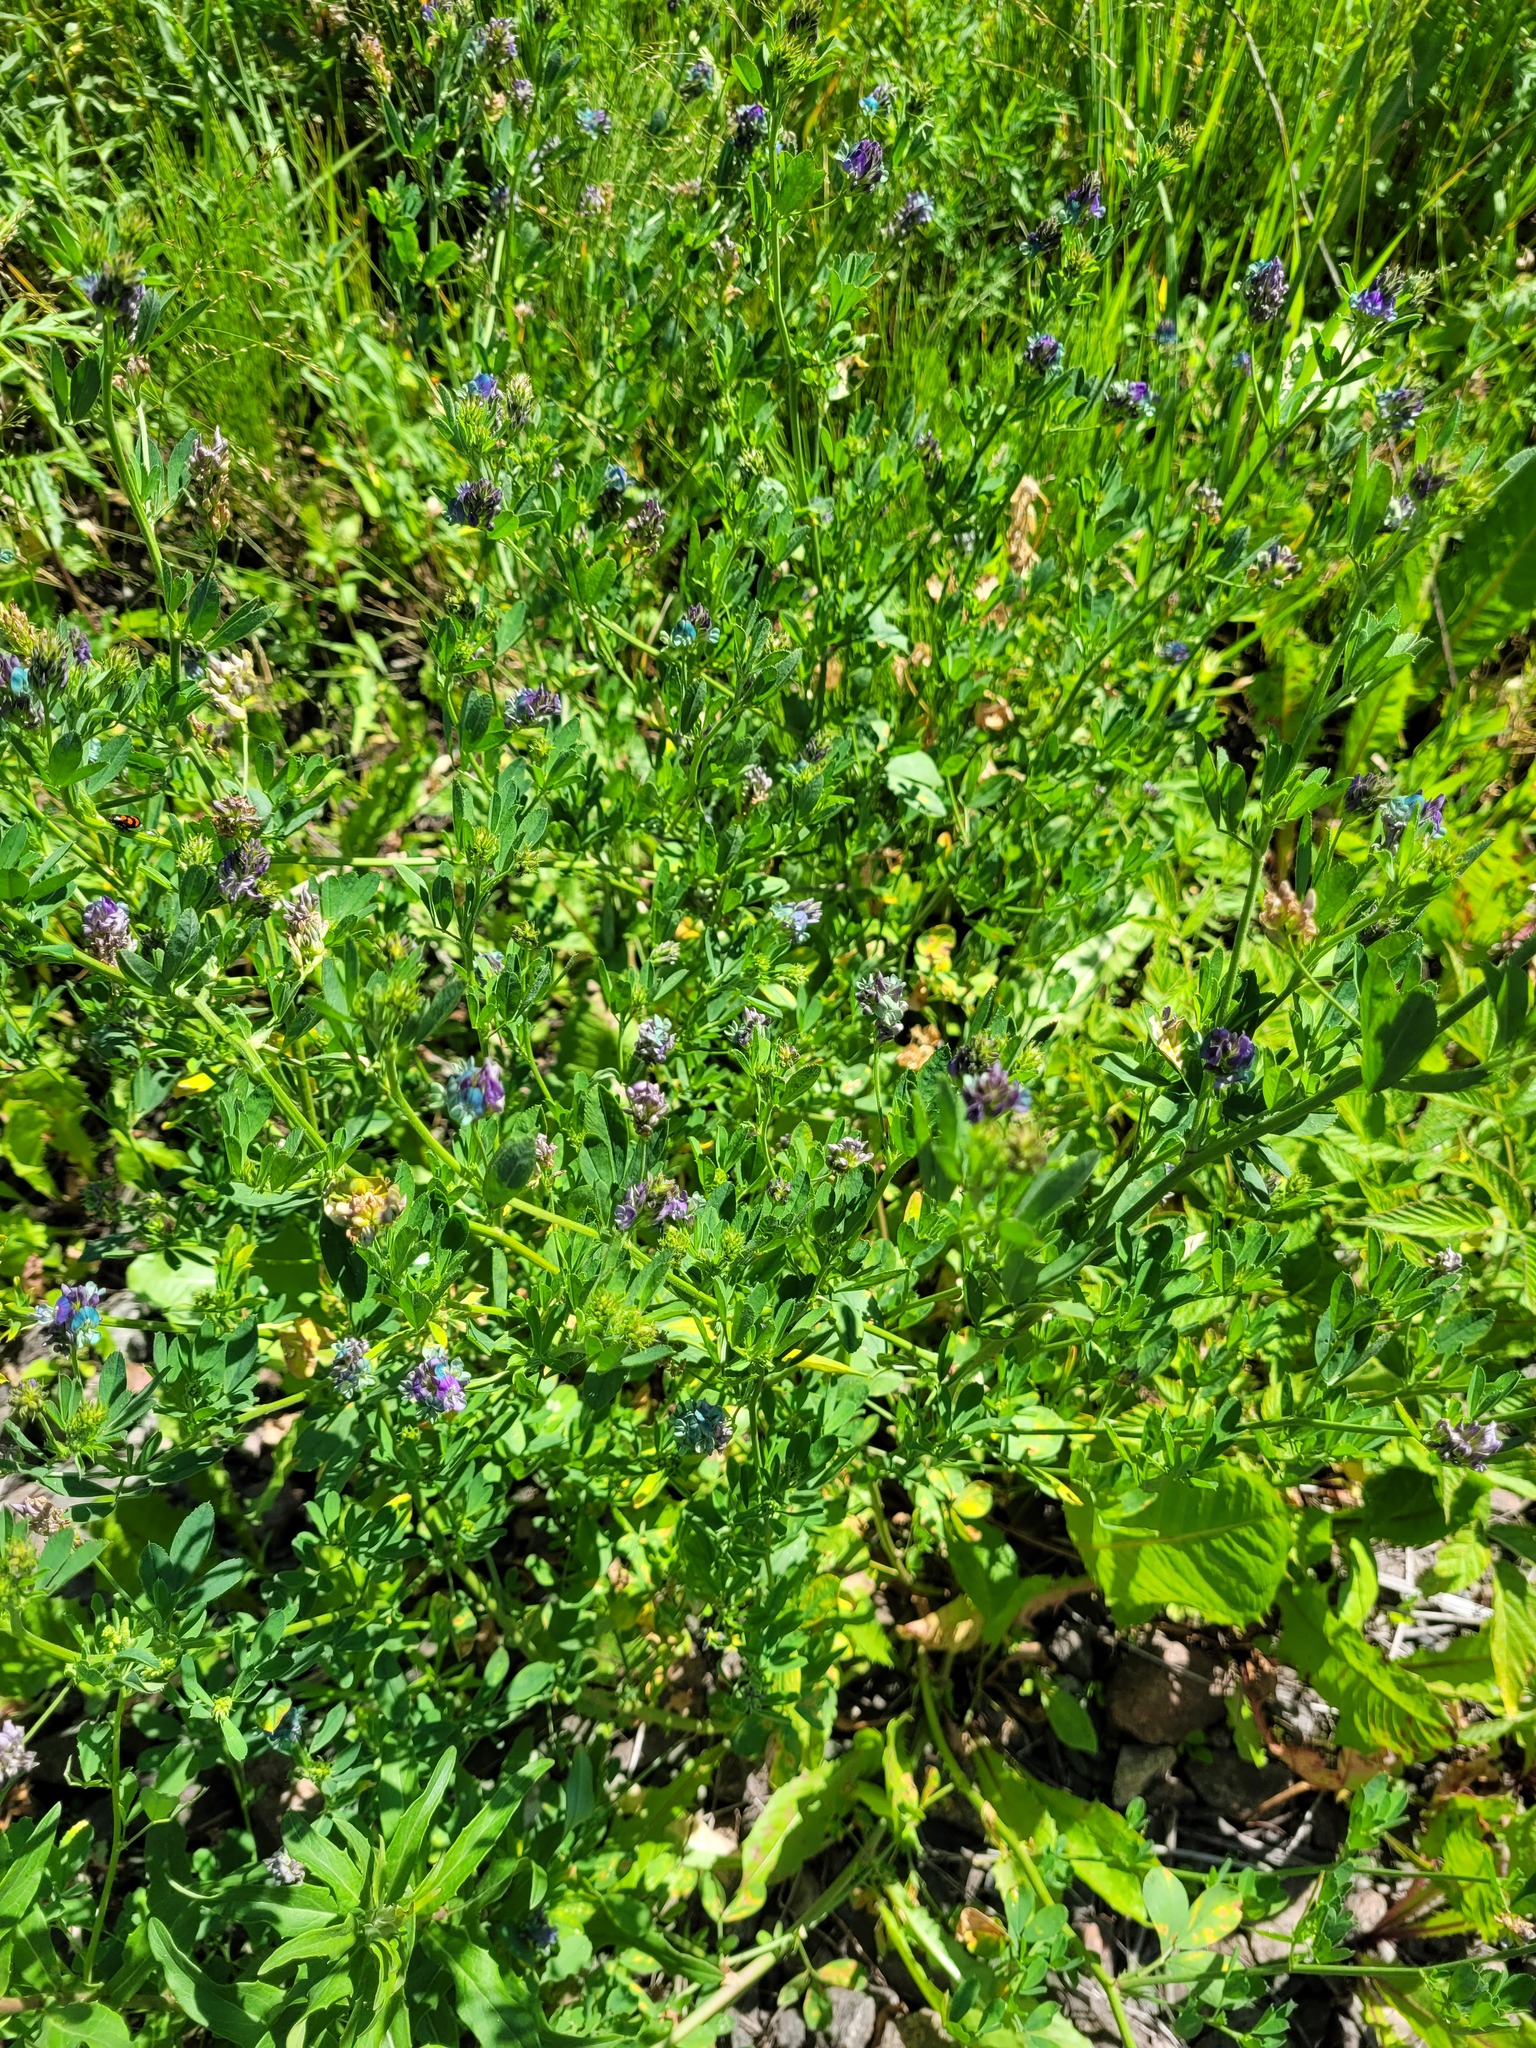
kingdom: Plantae
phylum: Tracheophyta
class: Magnoliopsida
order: Fabales
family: Fabaceae
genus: Medicago
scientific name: Medicago varia
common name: Sand lucerne
